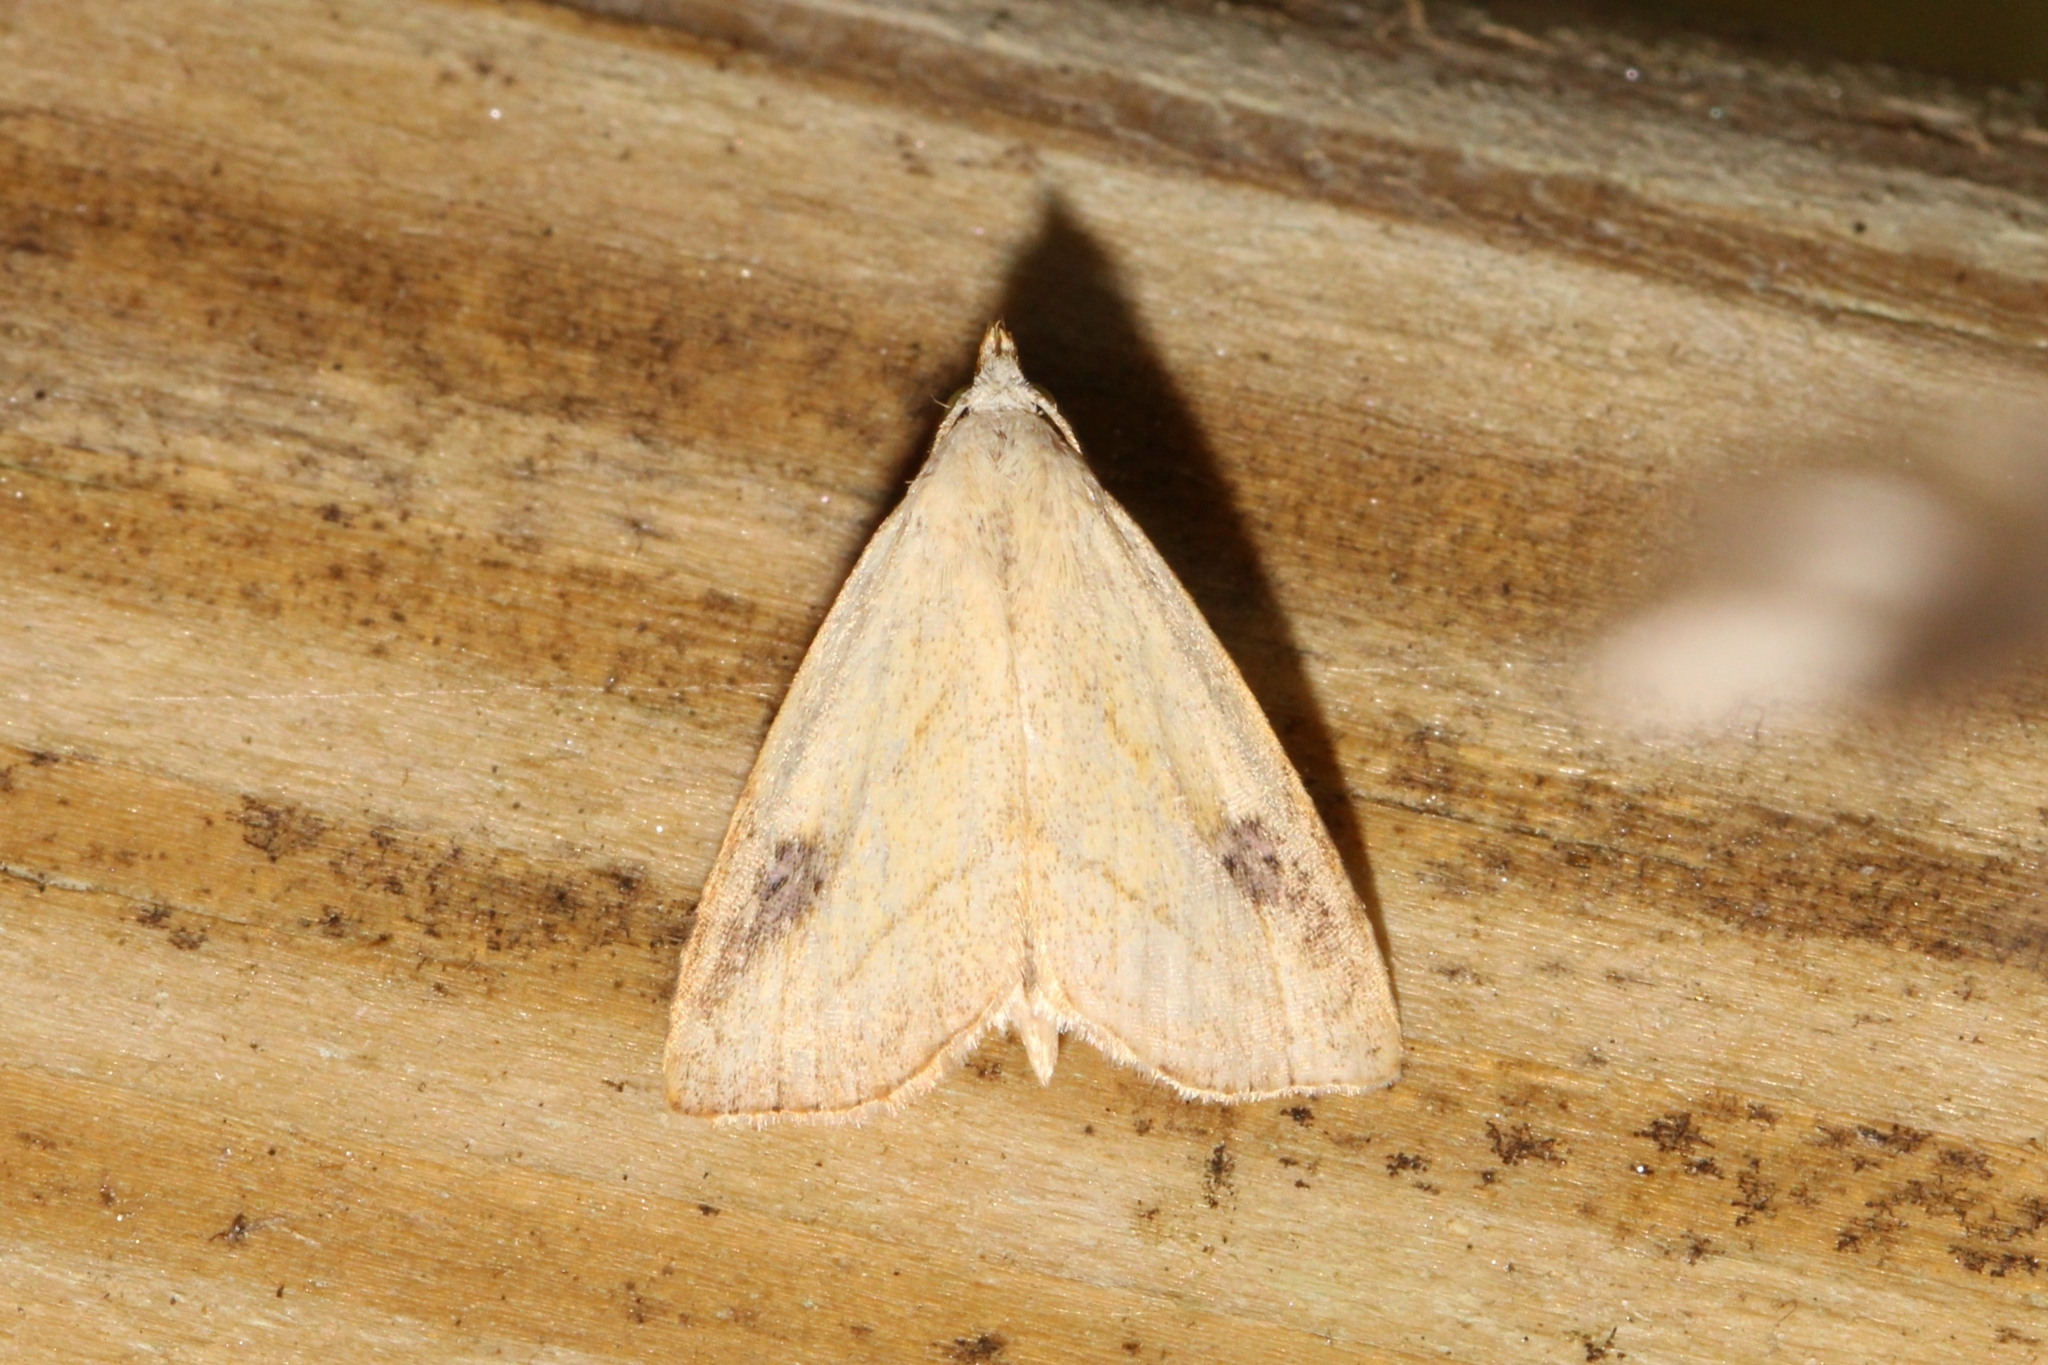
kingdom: Animalia
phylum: Arthropoda
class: Insecta
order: Lepidoptera
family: Erebidae
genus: Rivula
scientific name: Rivula propinqualis
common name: Spotted grass moth
